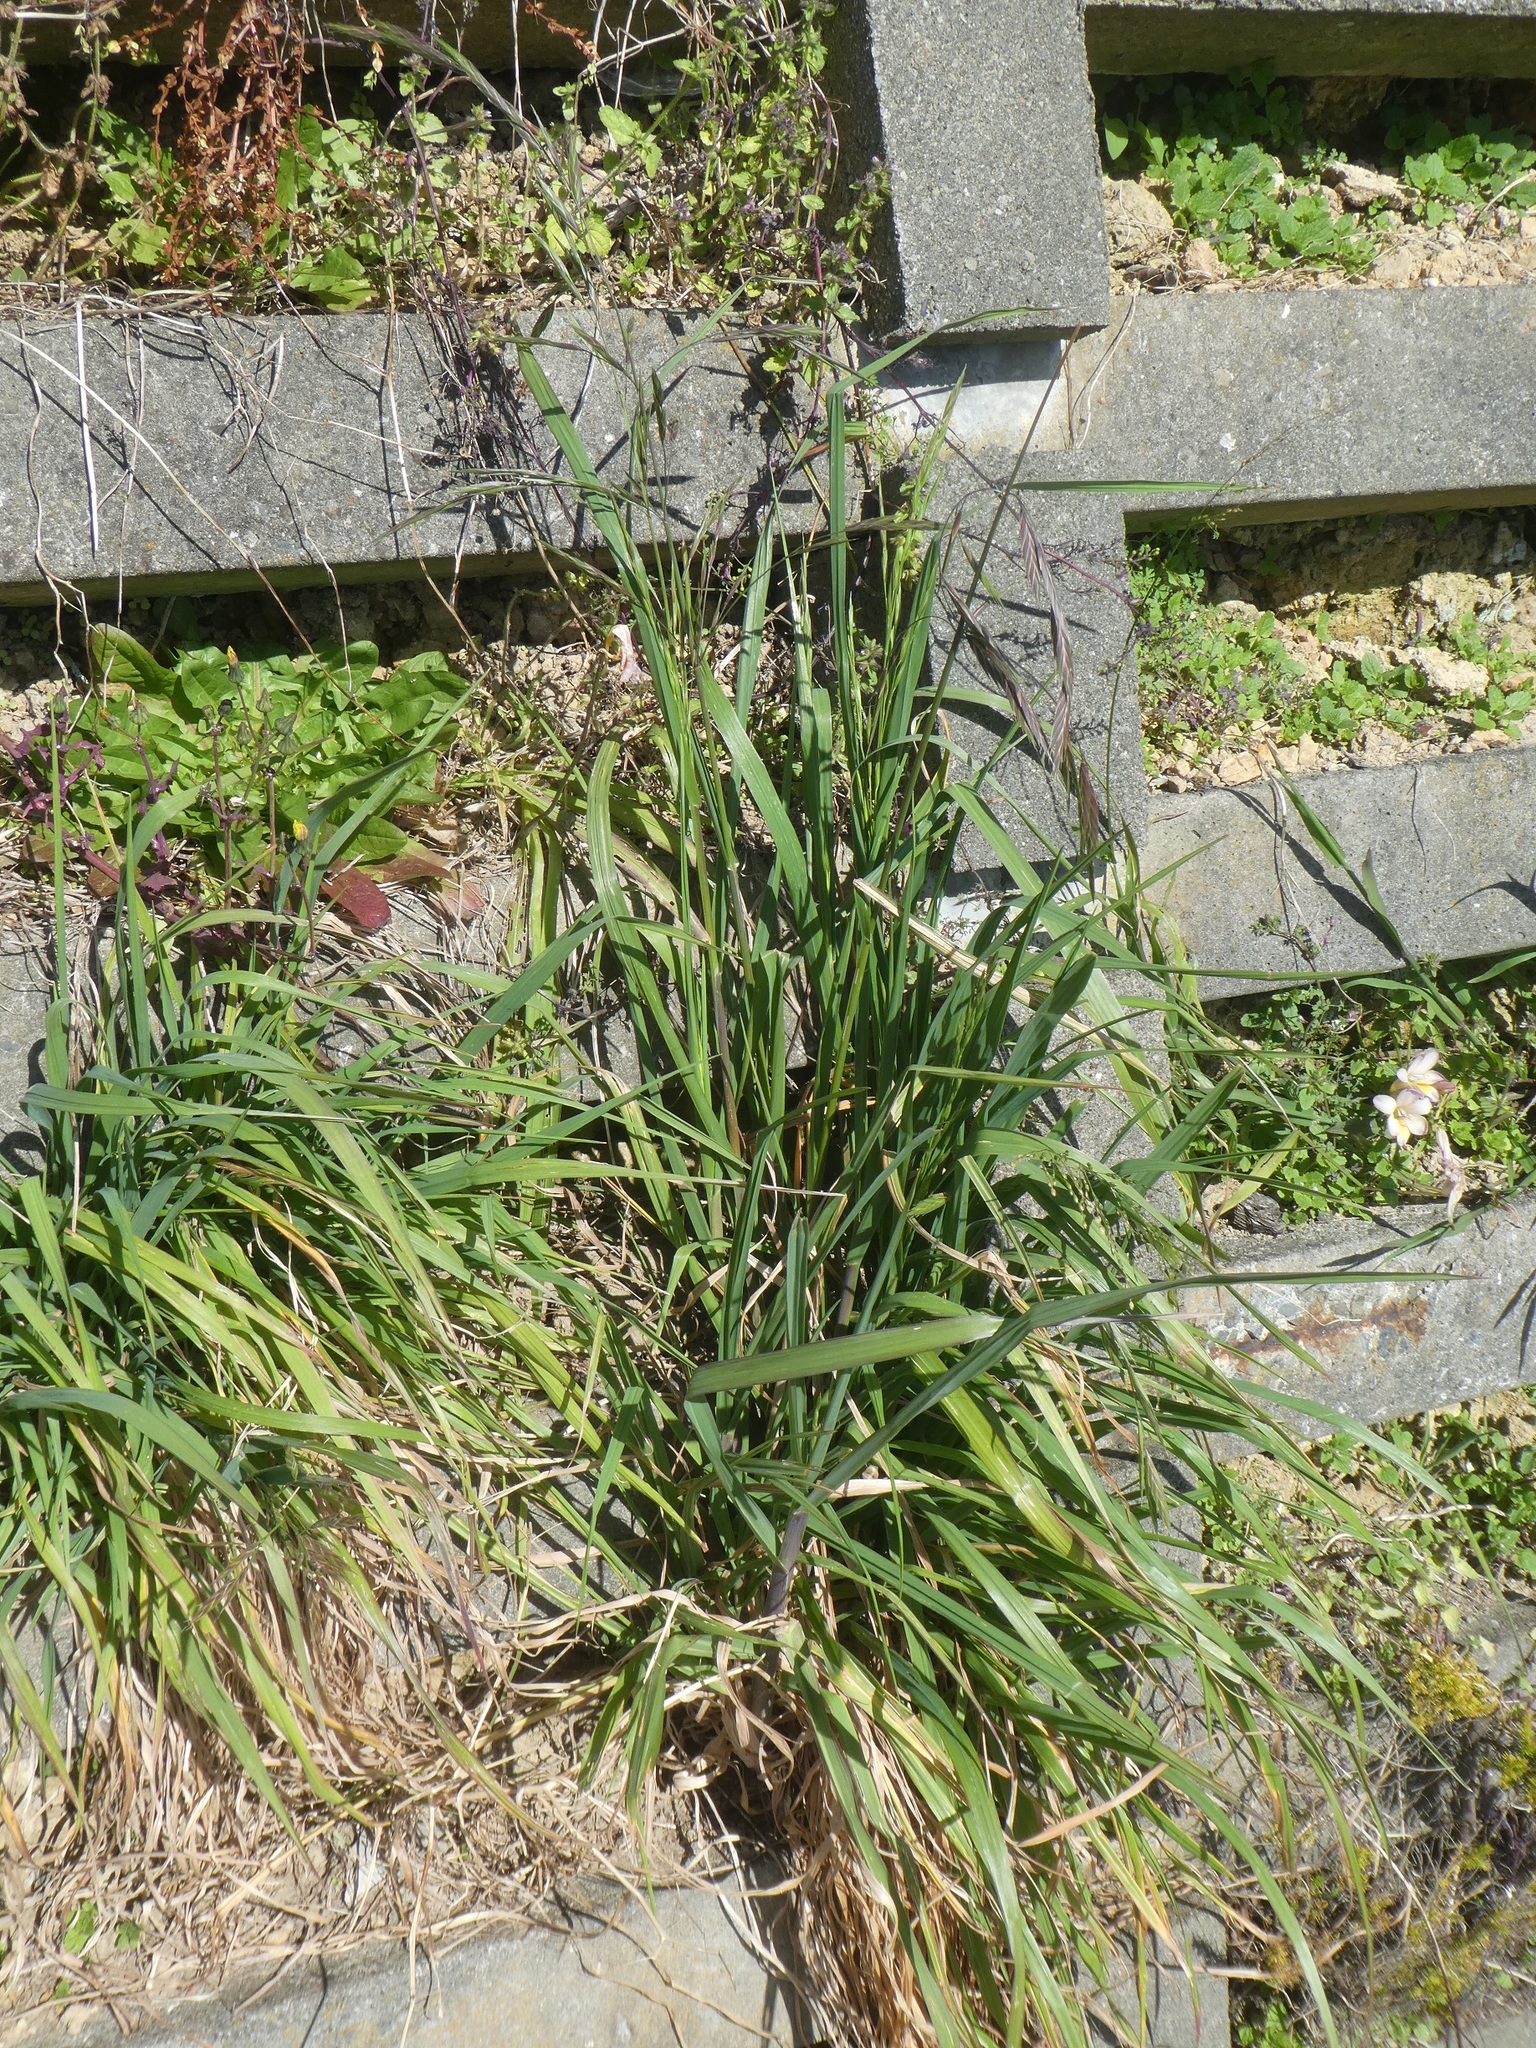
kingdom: Plantae
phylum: Tracheophyta
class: Liliopsida
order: Poales
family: Poaceae
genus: Bromus
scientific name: Bromus catharticus
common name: Rescuegrass
